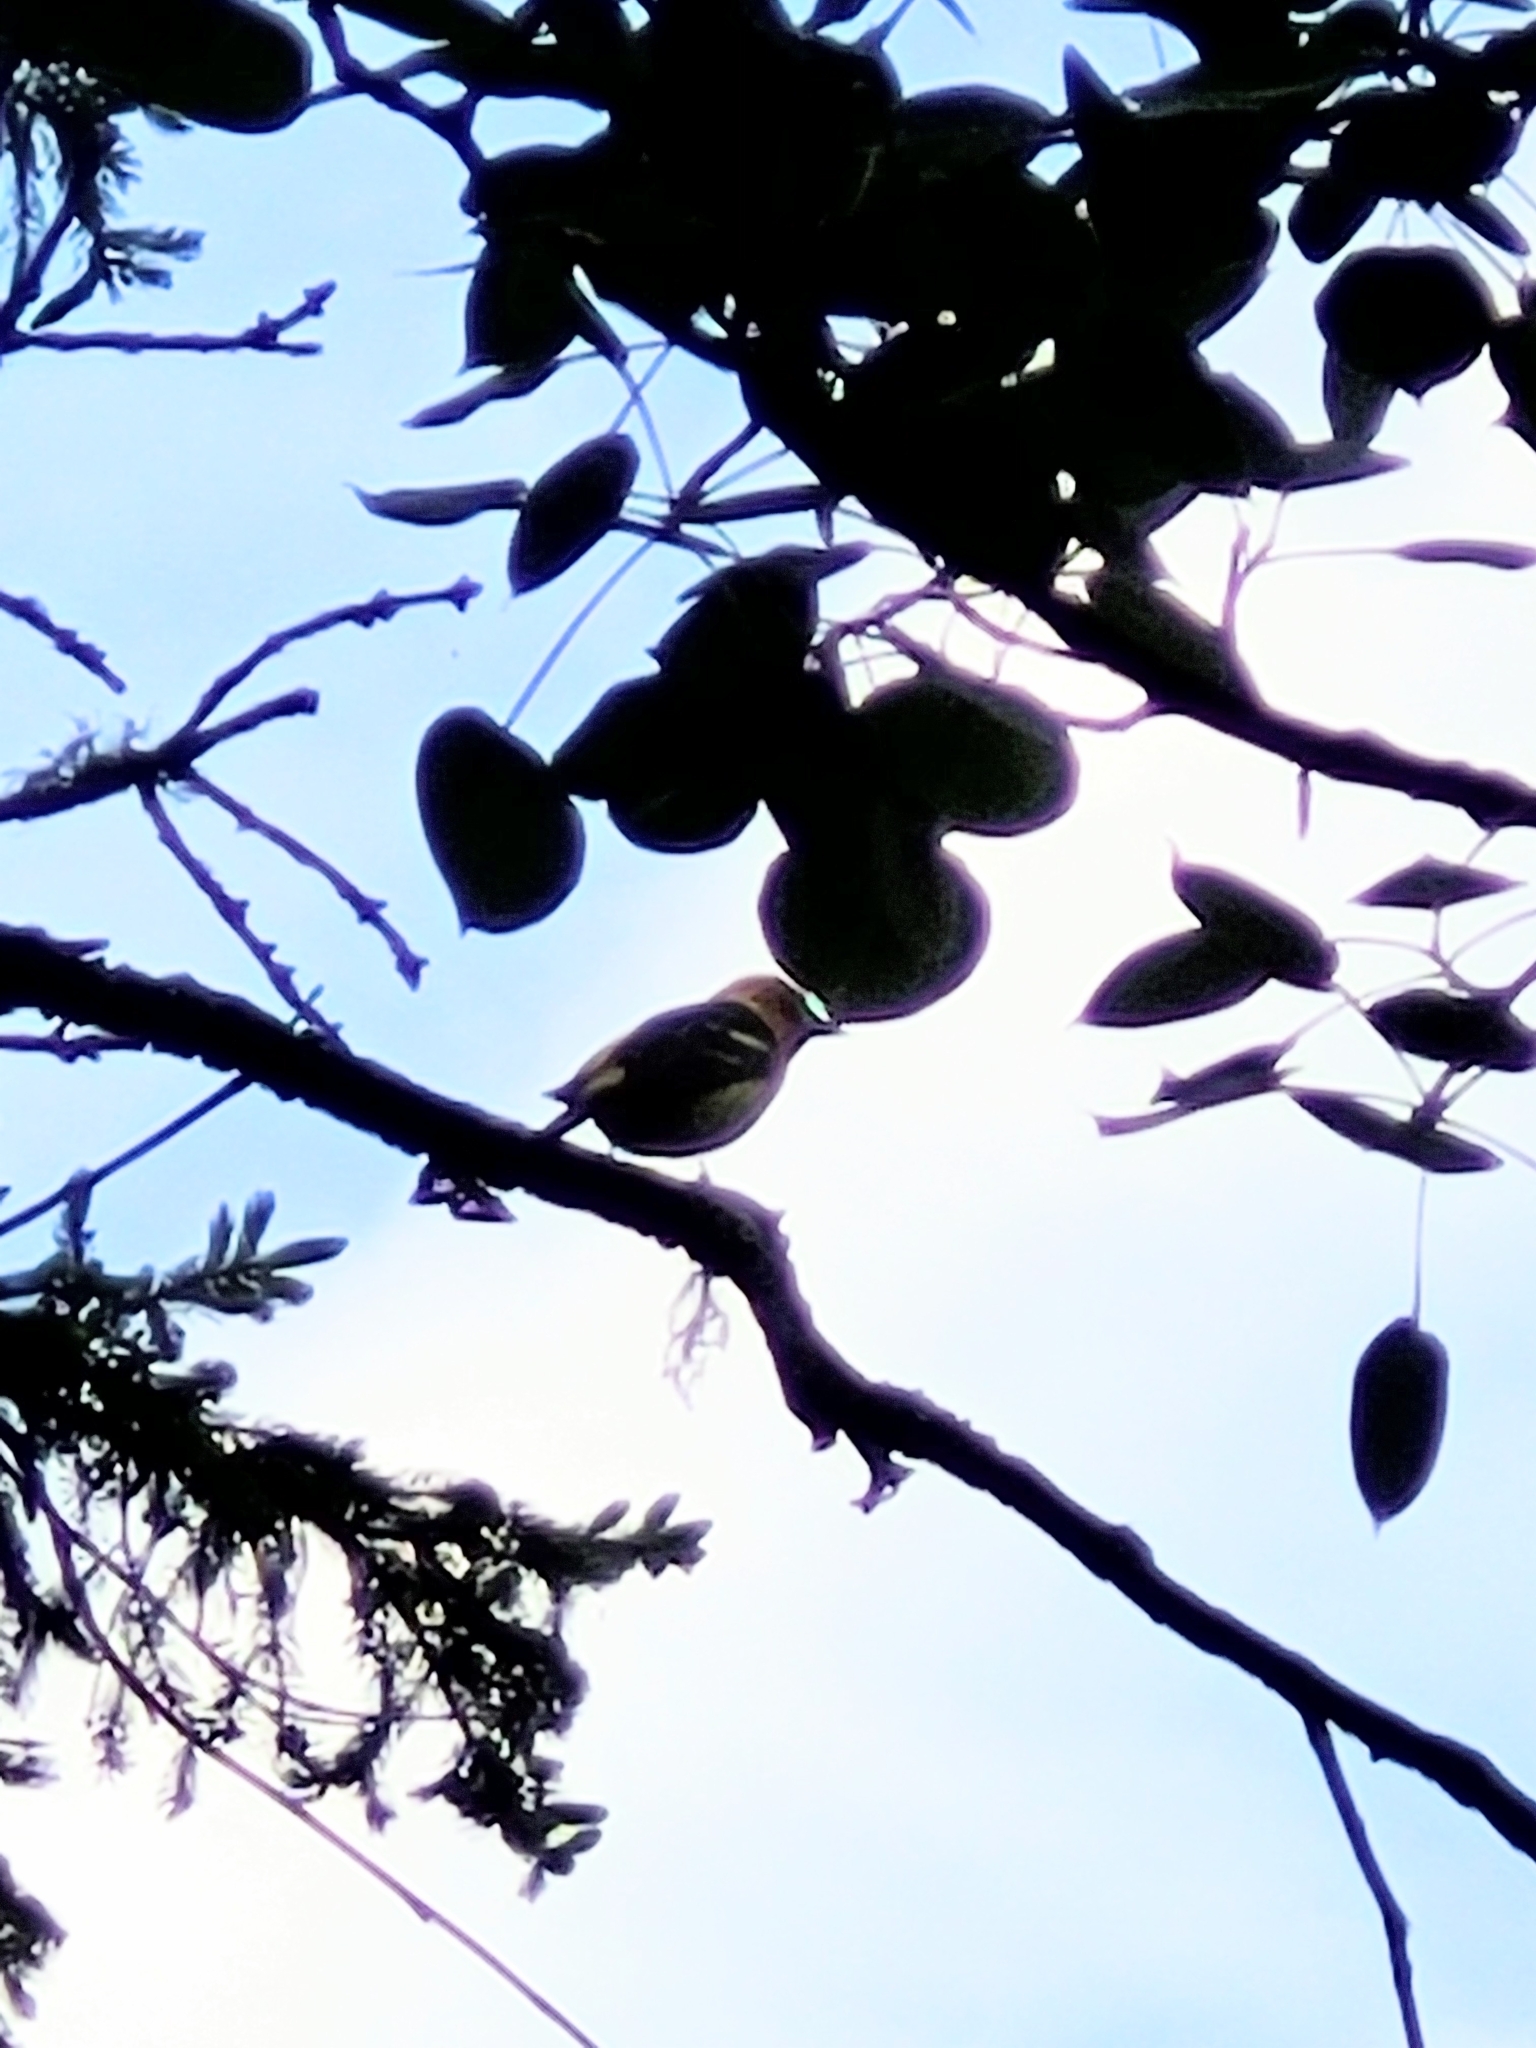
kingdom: Animalia
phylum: Chordata
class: Aves
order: Passeriformes
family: Cardinalidae
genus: Piranga
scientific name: Piranga ludoviciana
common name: Western tanager
